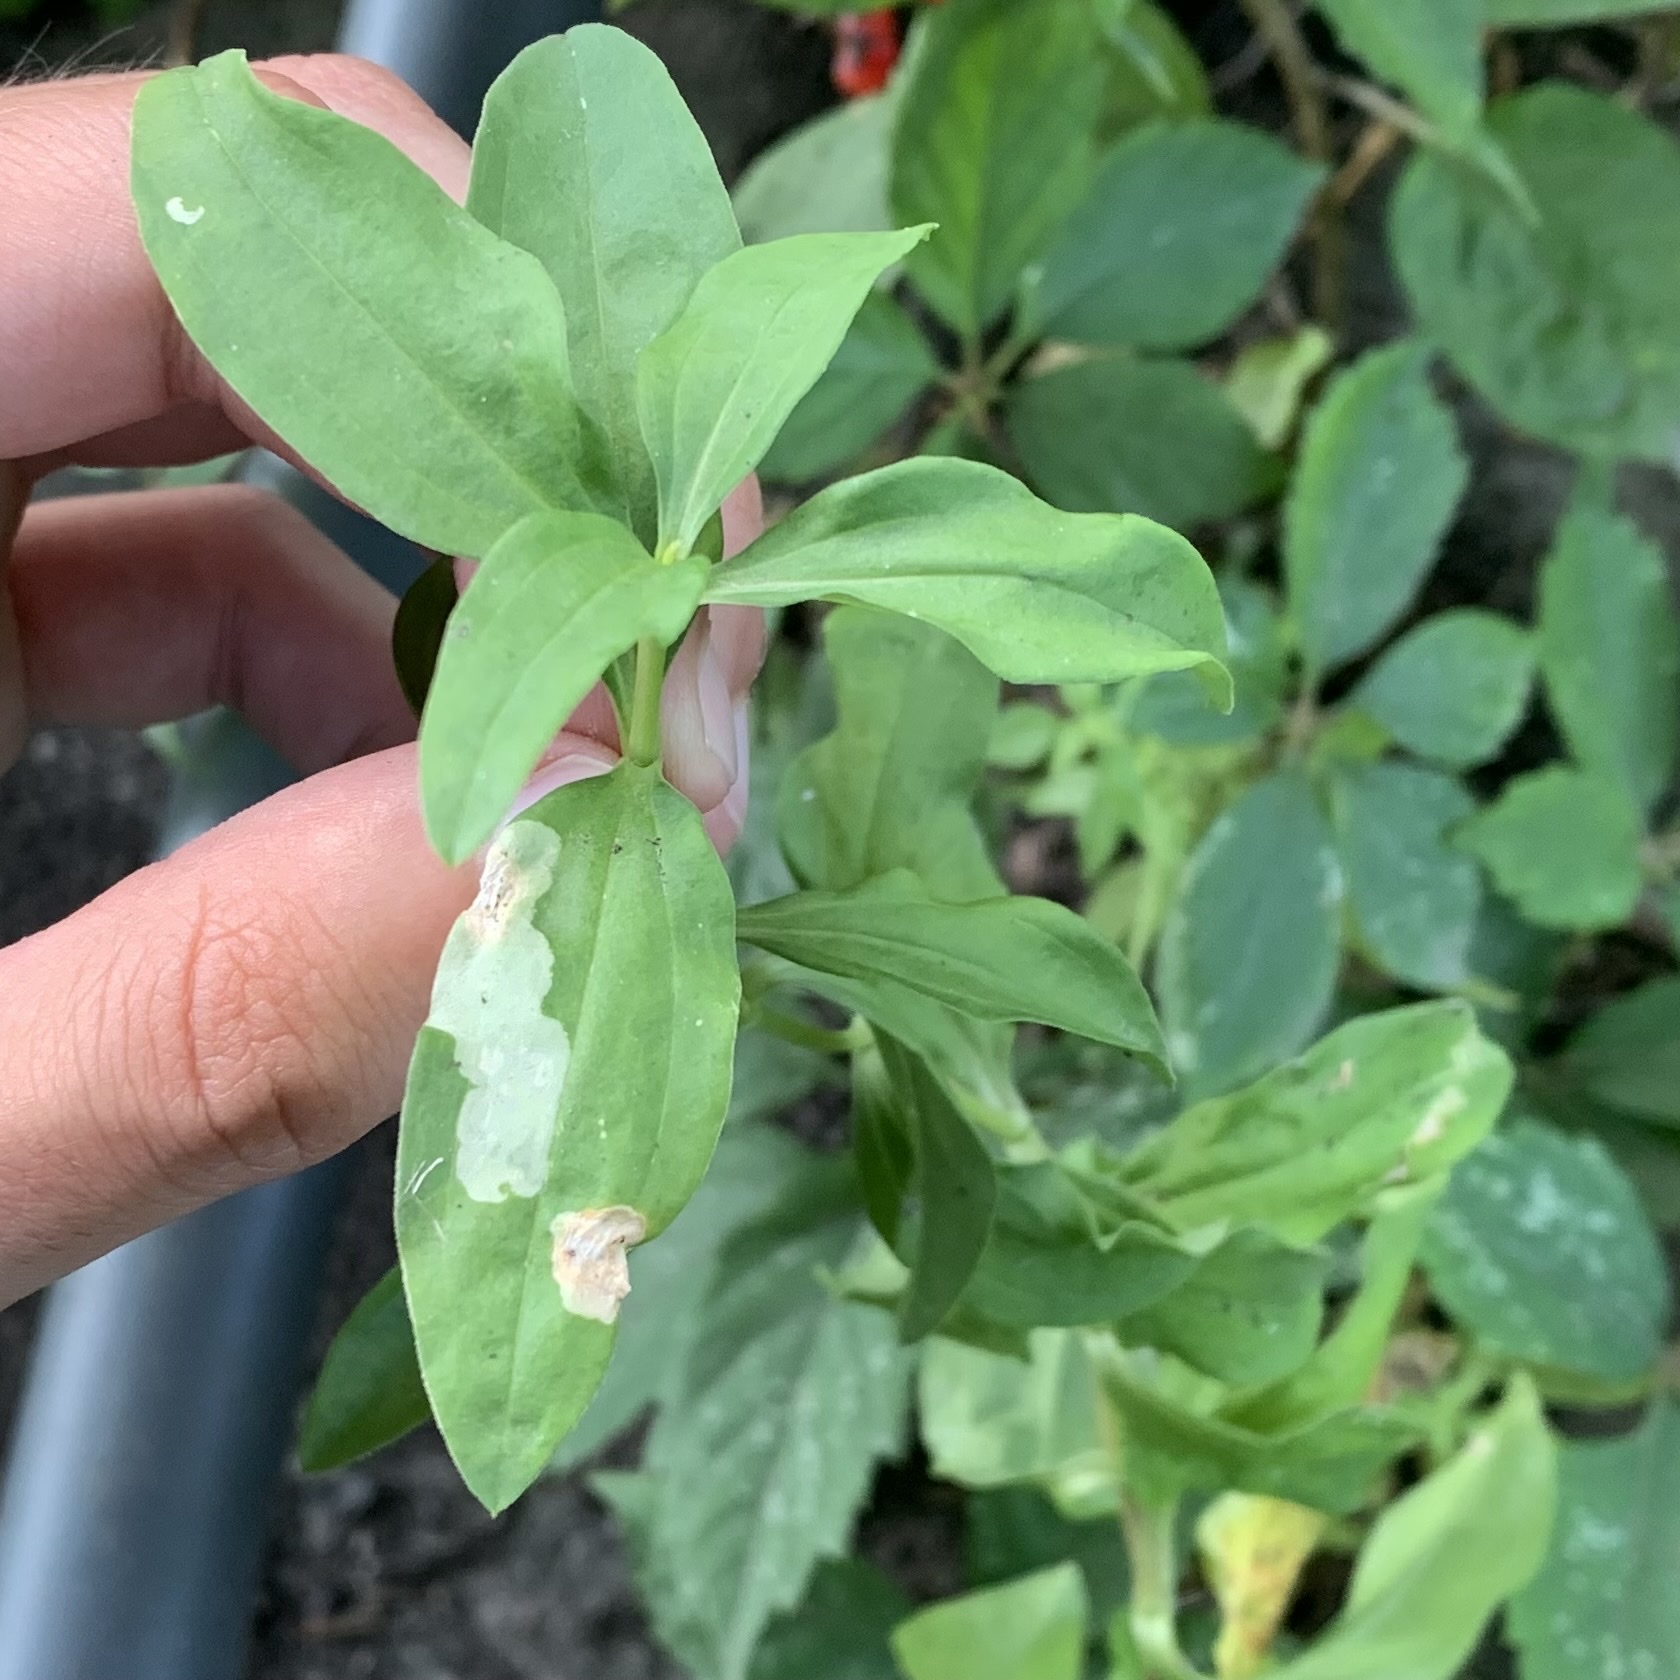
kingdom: Animalia
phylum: Arthropoda
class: Insecta
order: Diptera
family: Agromyzidae
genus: Amauromyza
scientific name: Amauromyza flavifrons
